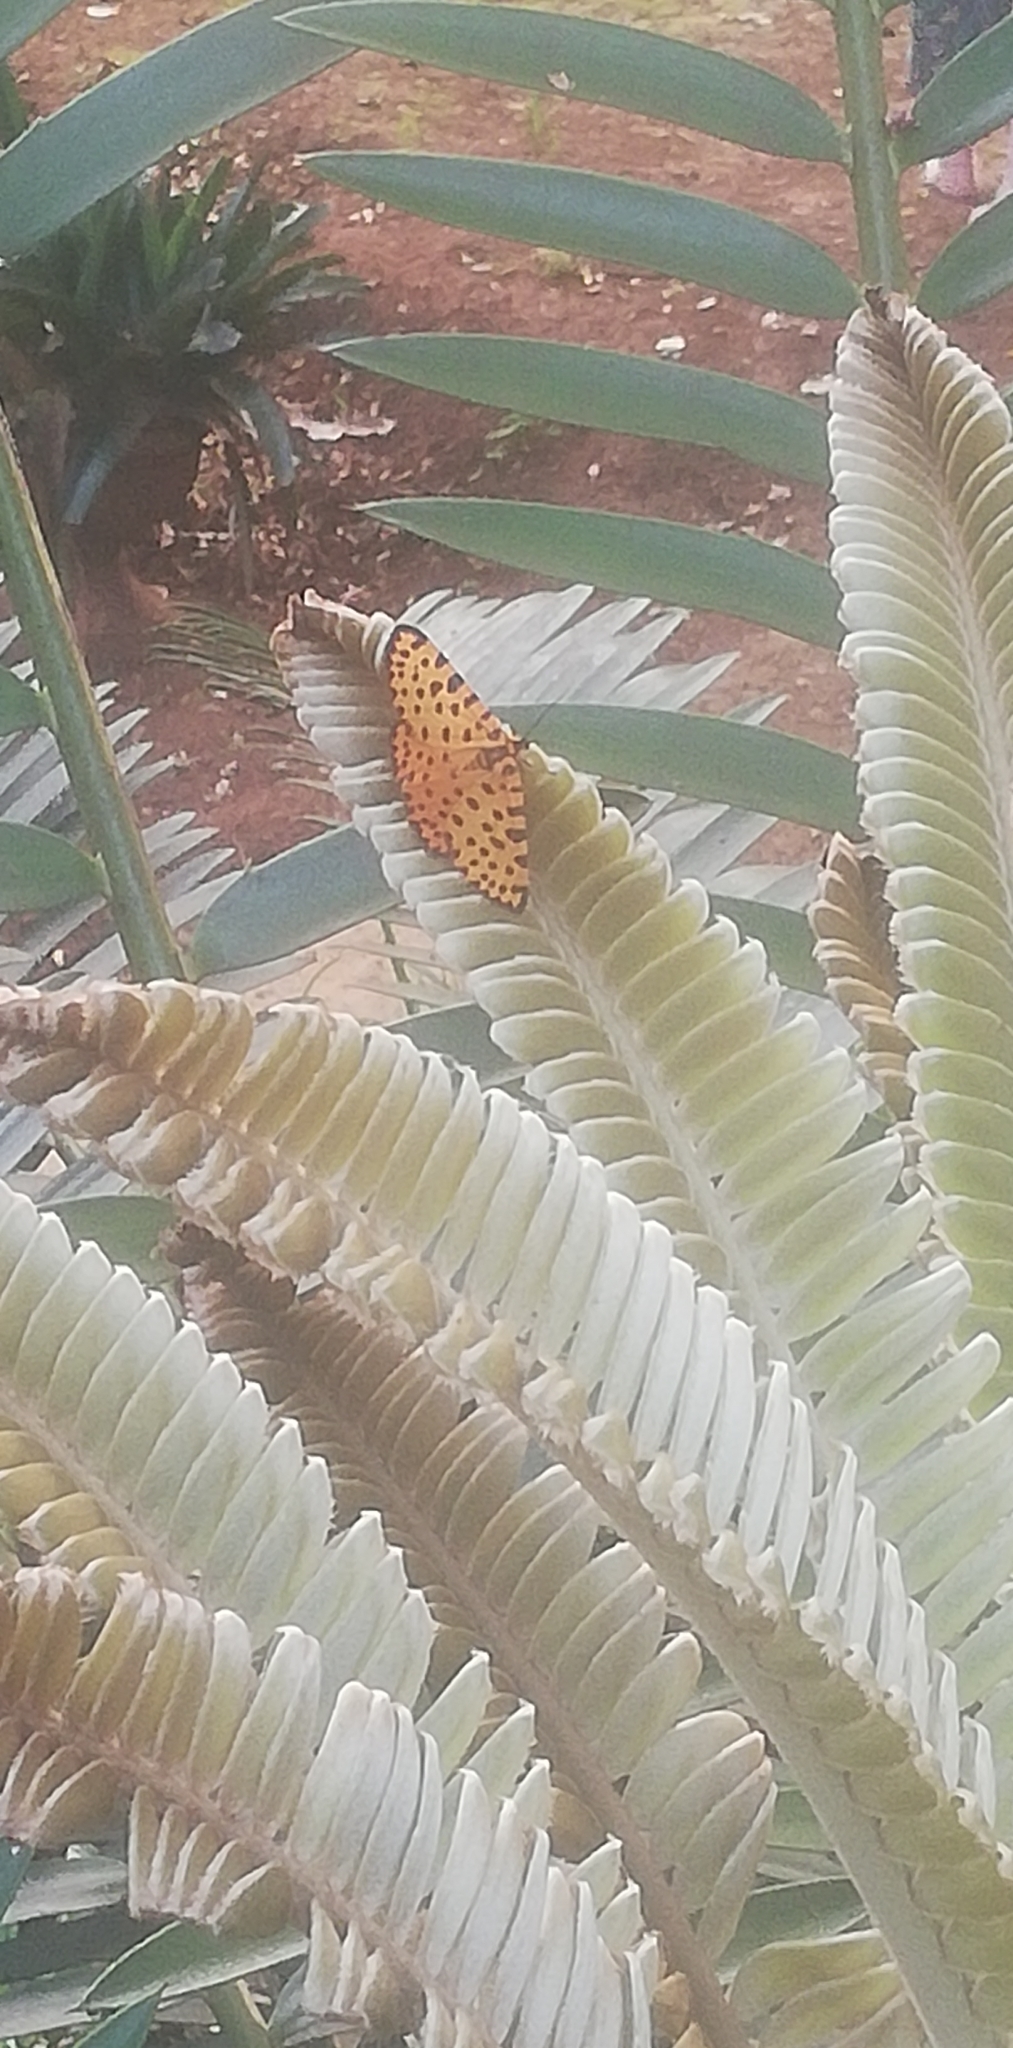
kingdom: Animalia
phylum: Arthropoda
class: Insecta
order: Lepidoptera
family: Geometridae
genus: Zerenopsis
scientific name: Zerenopsis lepida
